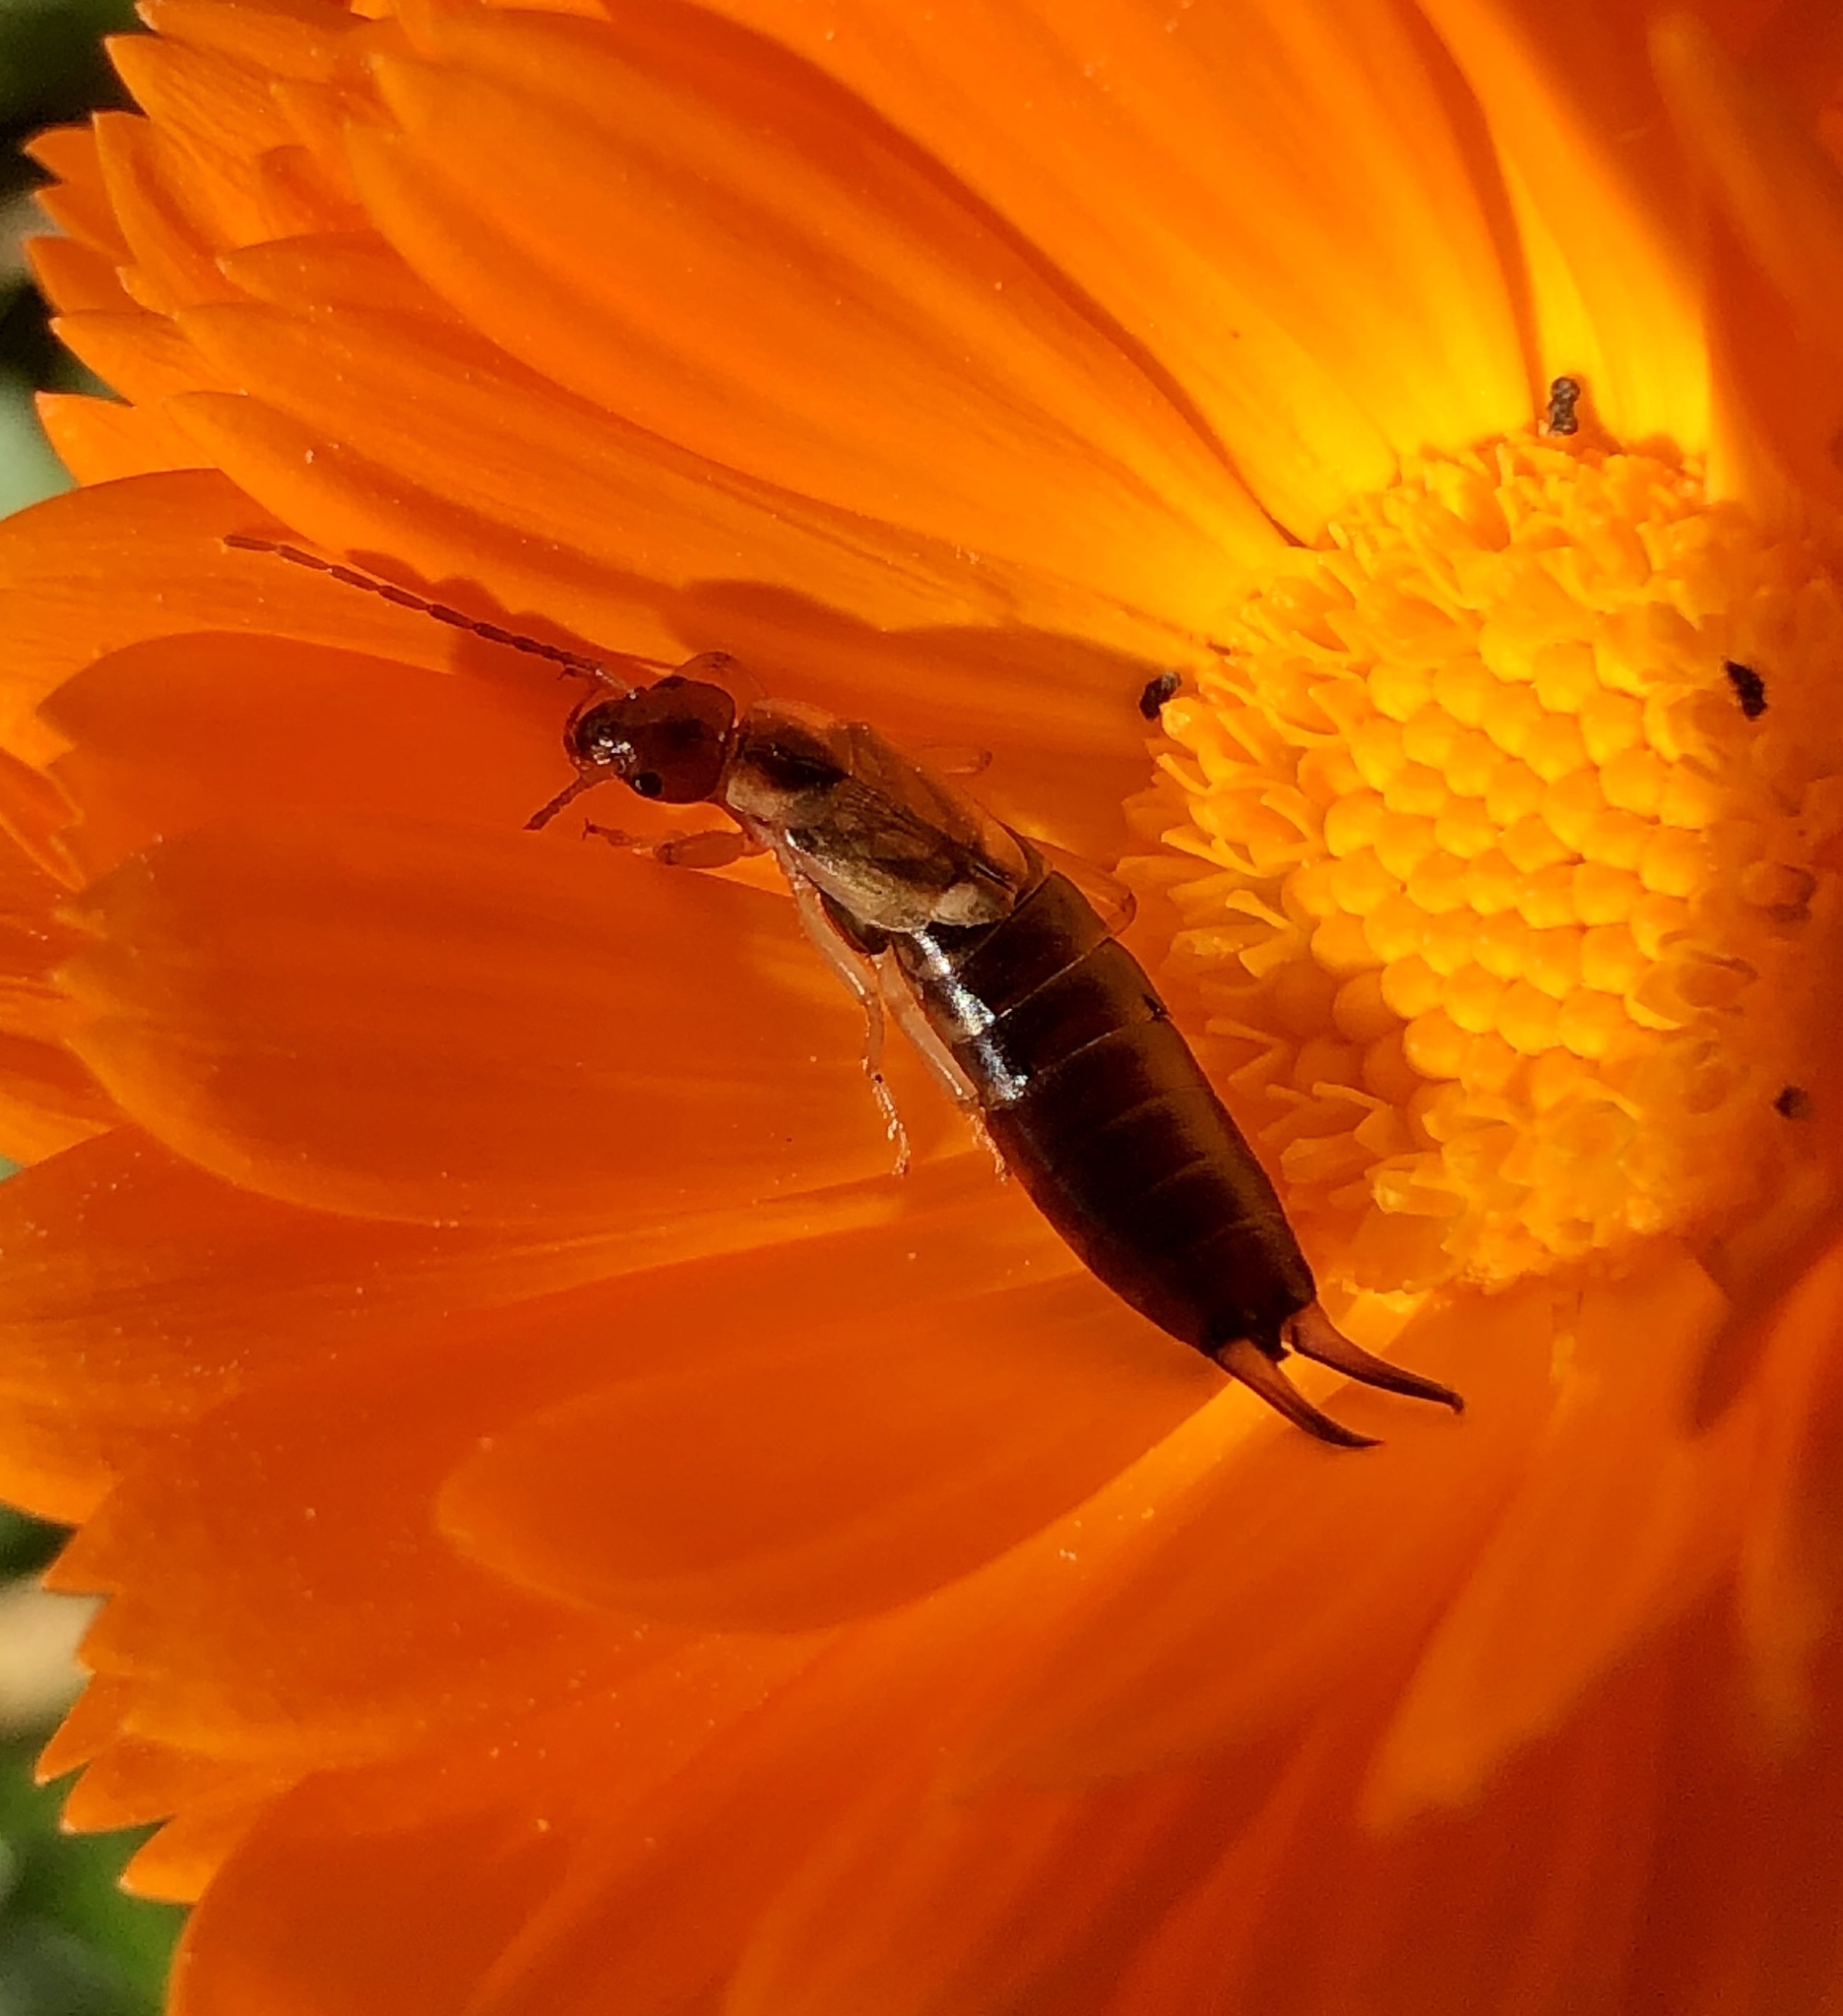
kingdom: Animalia
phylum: Arthropoda
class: Insecta
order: Dermaptera
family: Forficulidae
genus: Forficula
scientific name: Forficula
